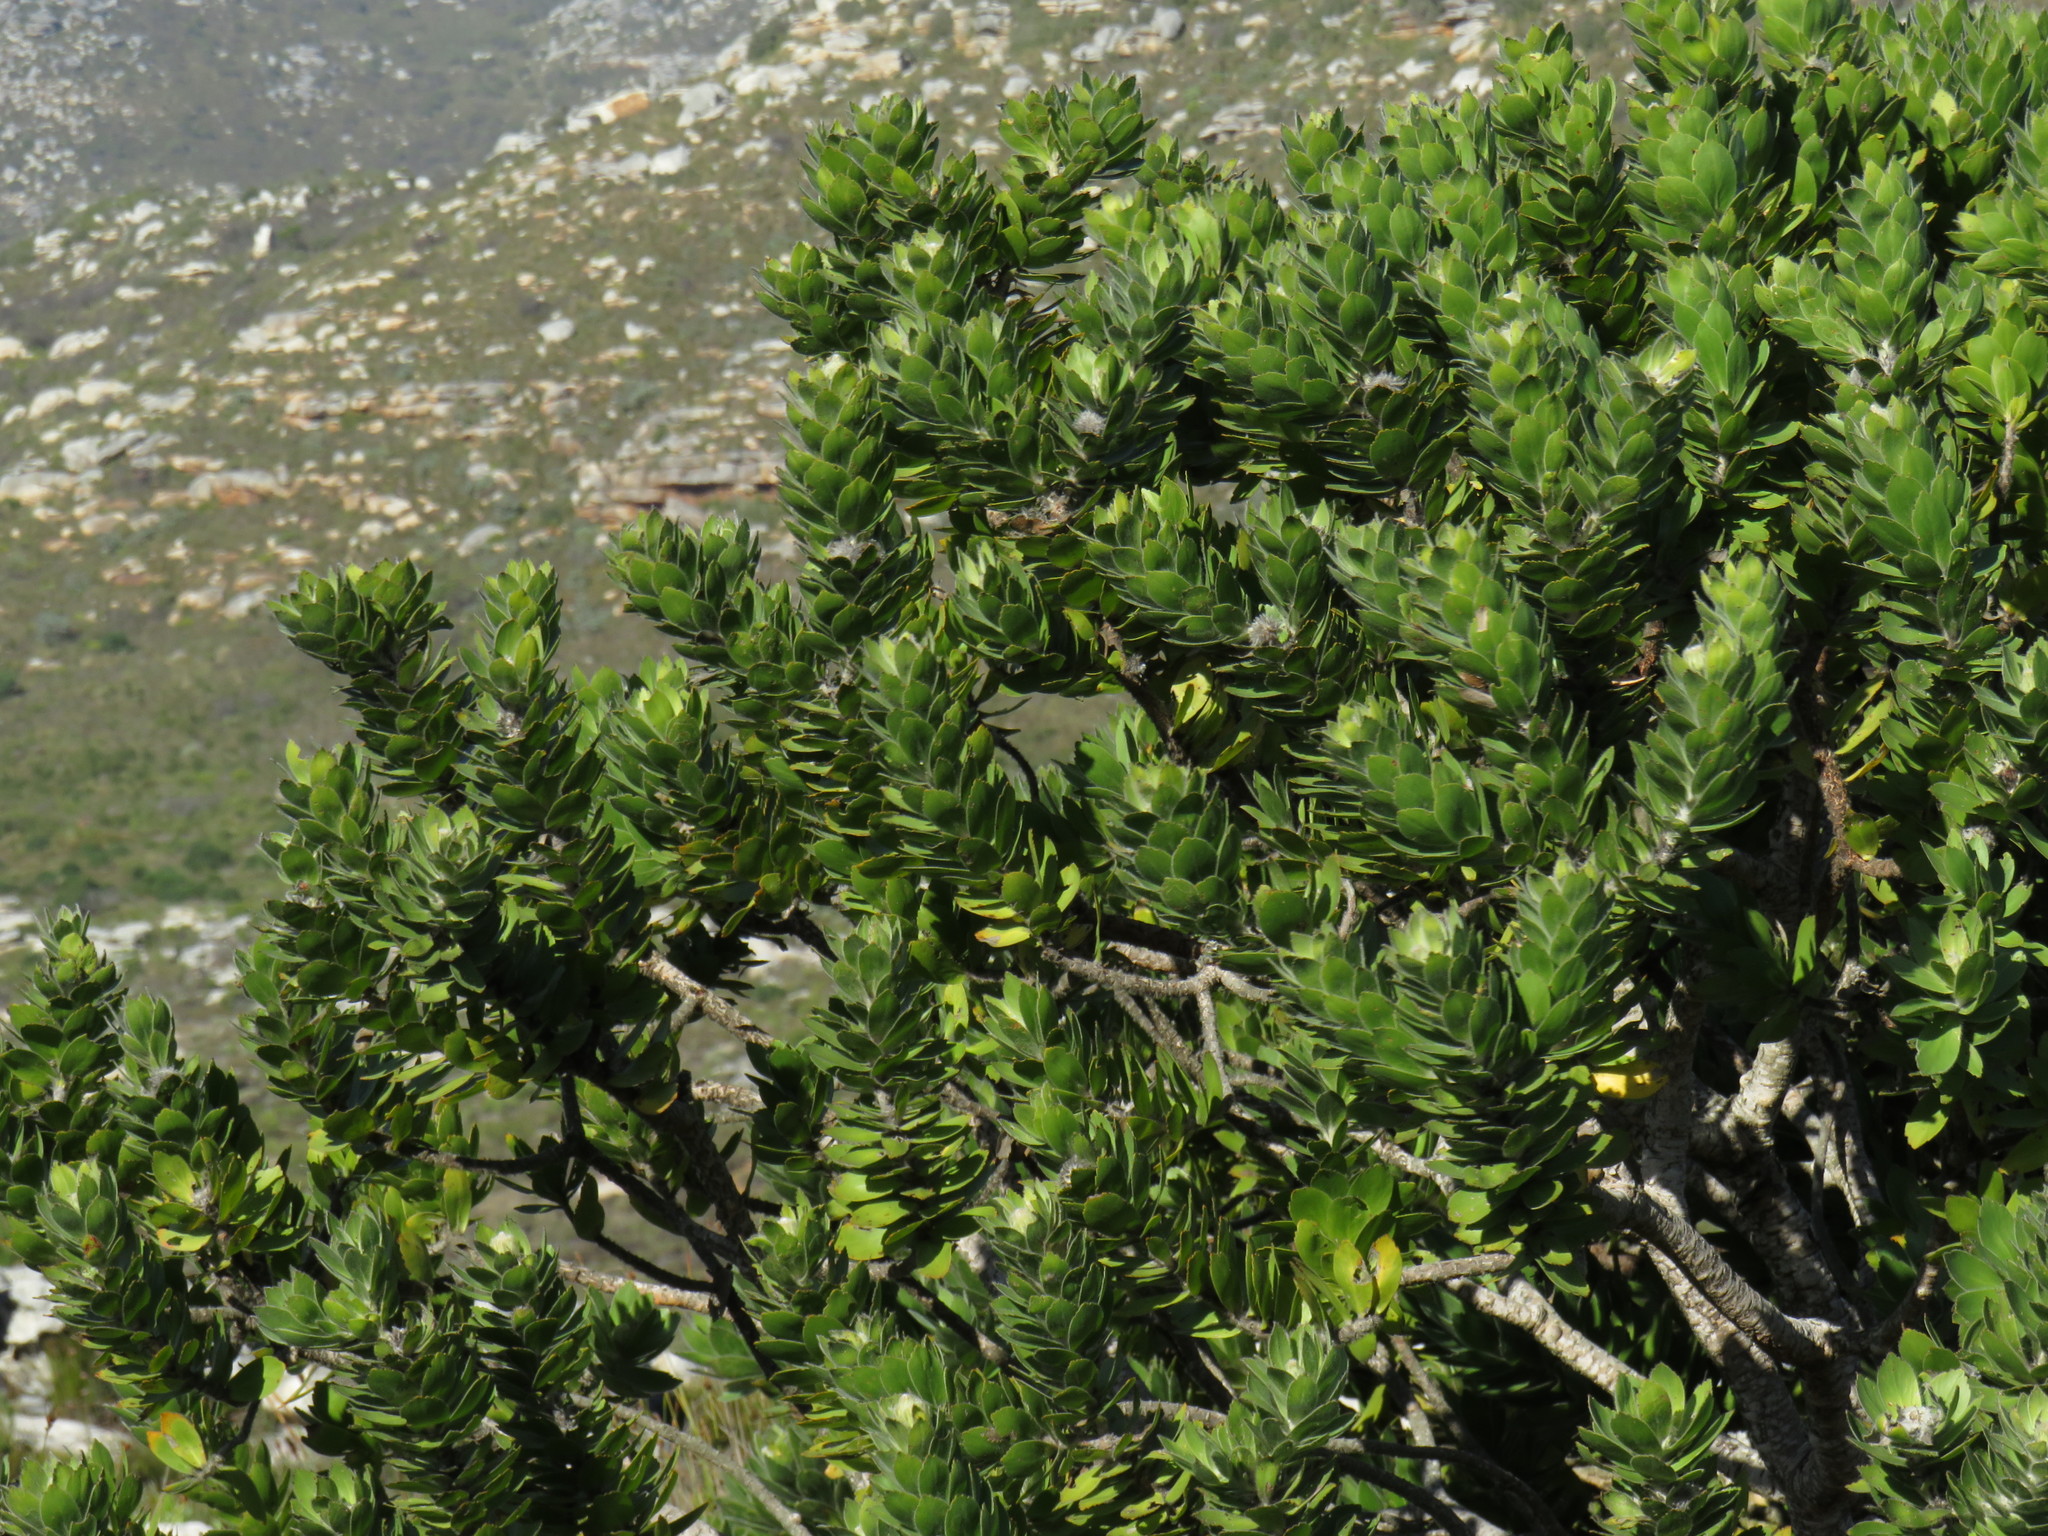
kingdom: Plantae
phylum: Tracheophyta
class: Magnoliopsida
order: Proteales
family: Proteaceae
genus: Leucospermum
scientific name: Leucospermum conocarpodendron
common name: Tree pincushion
